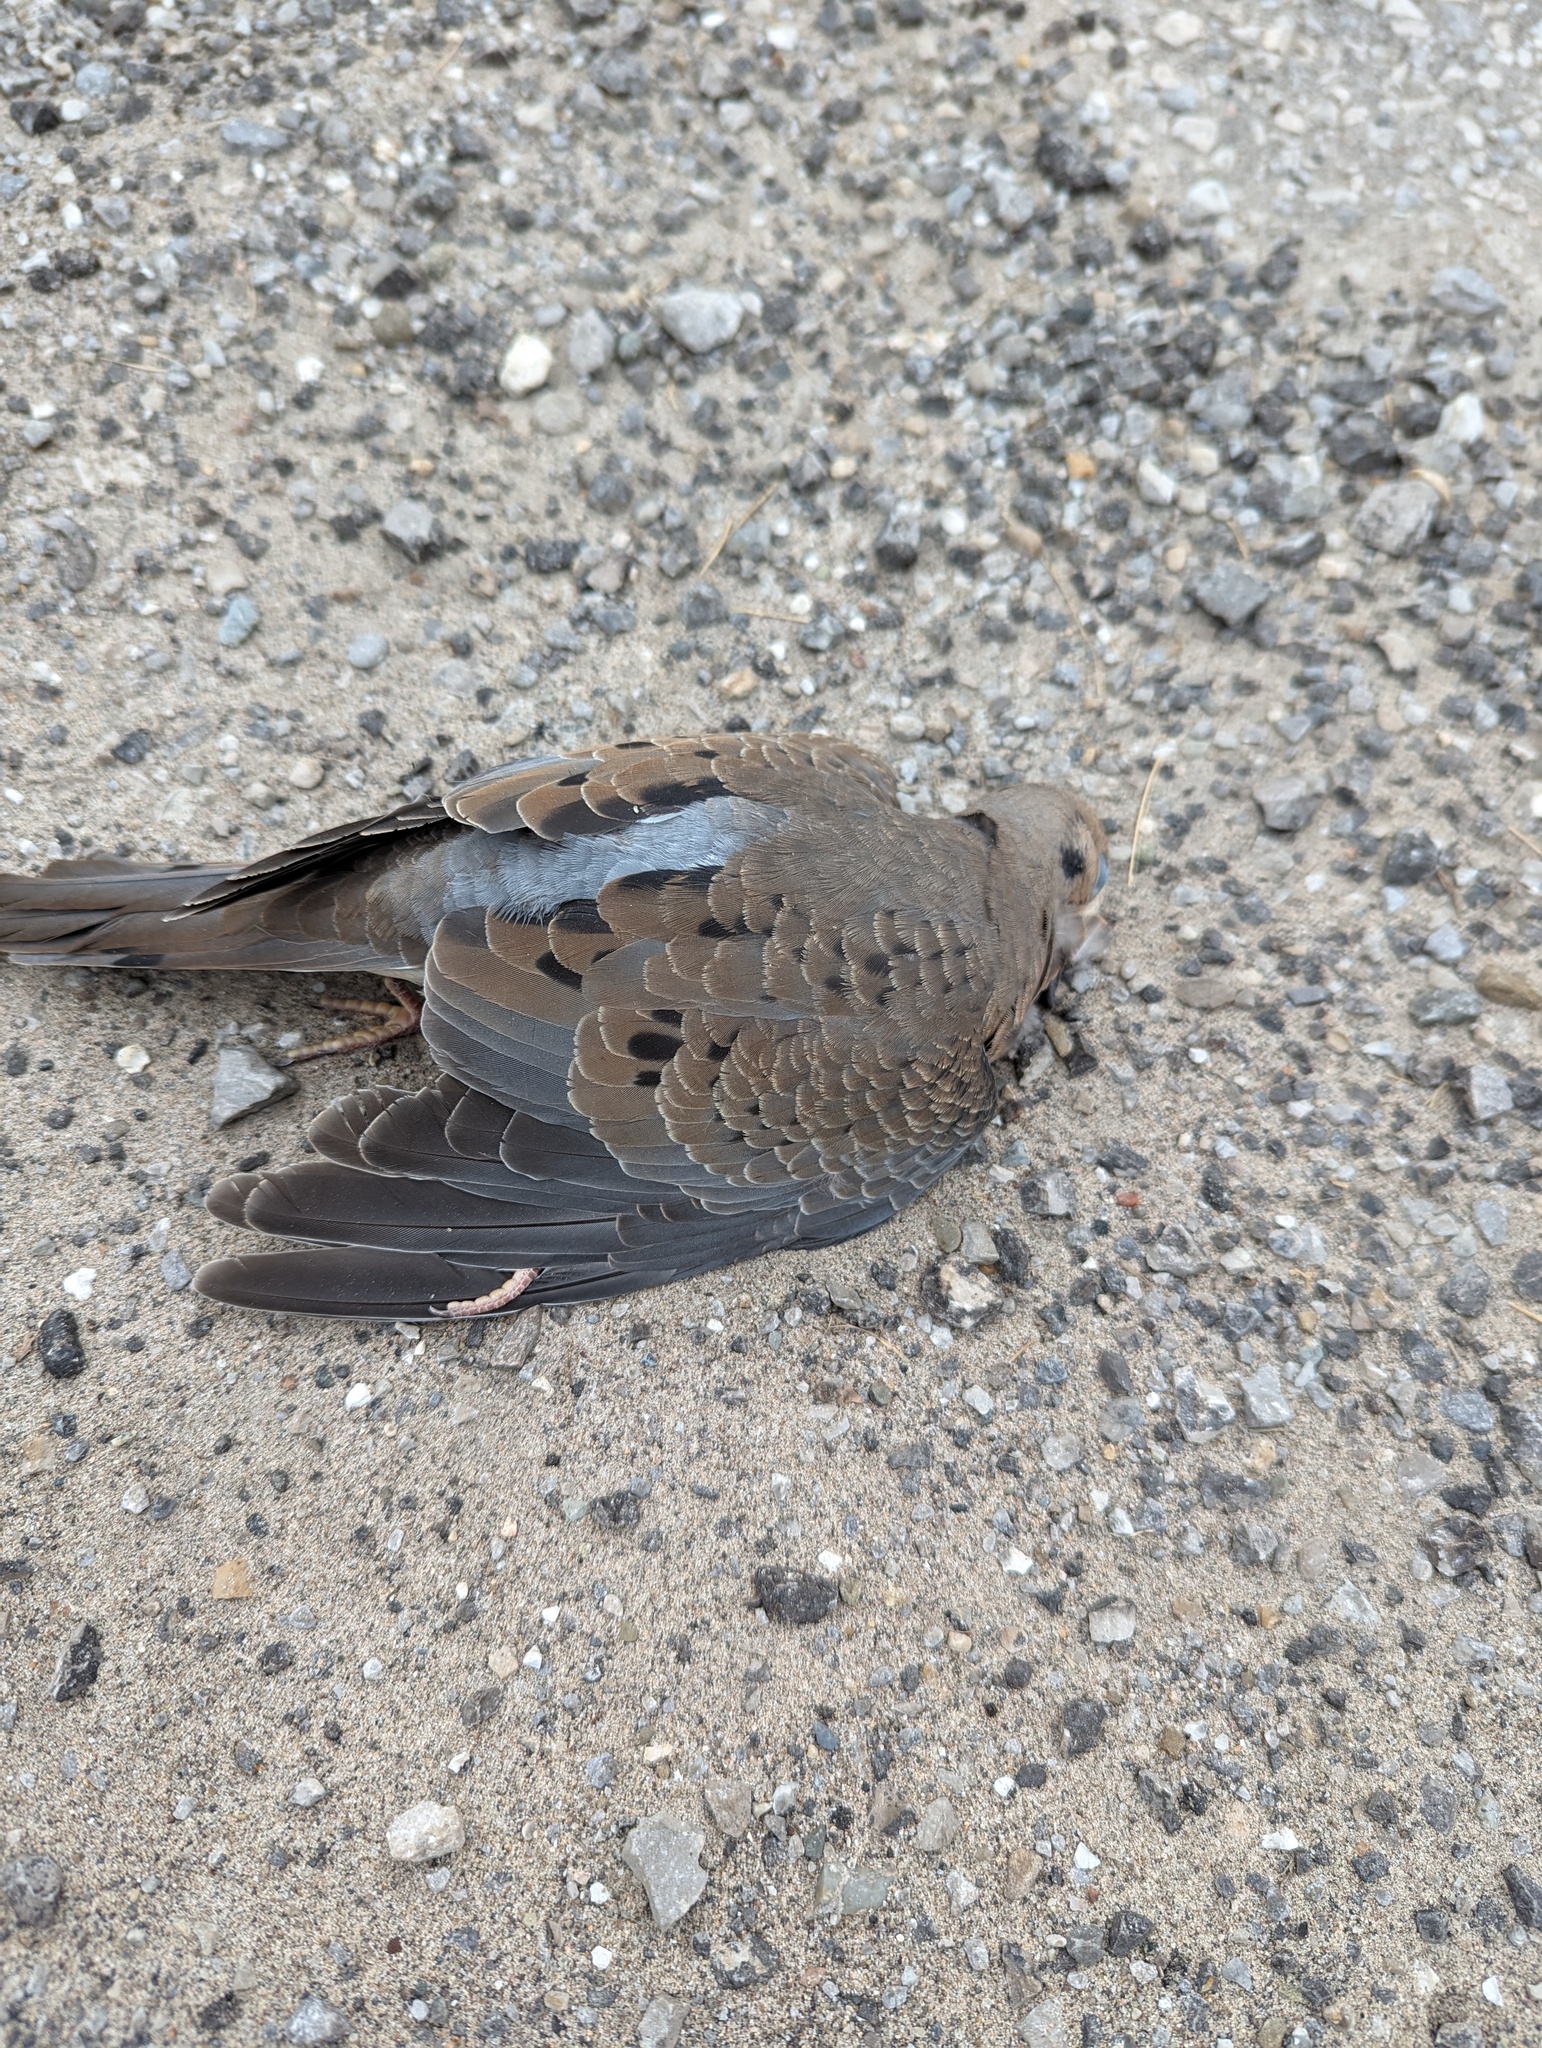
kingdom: Animalia
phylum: Chordata
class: Aves
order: Columbiformes
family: Columbidae
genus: Zenaida
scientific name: Zenaida macroura
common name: Mourning dove
